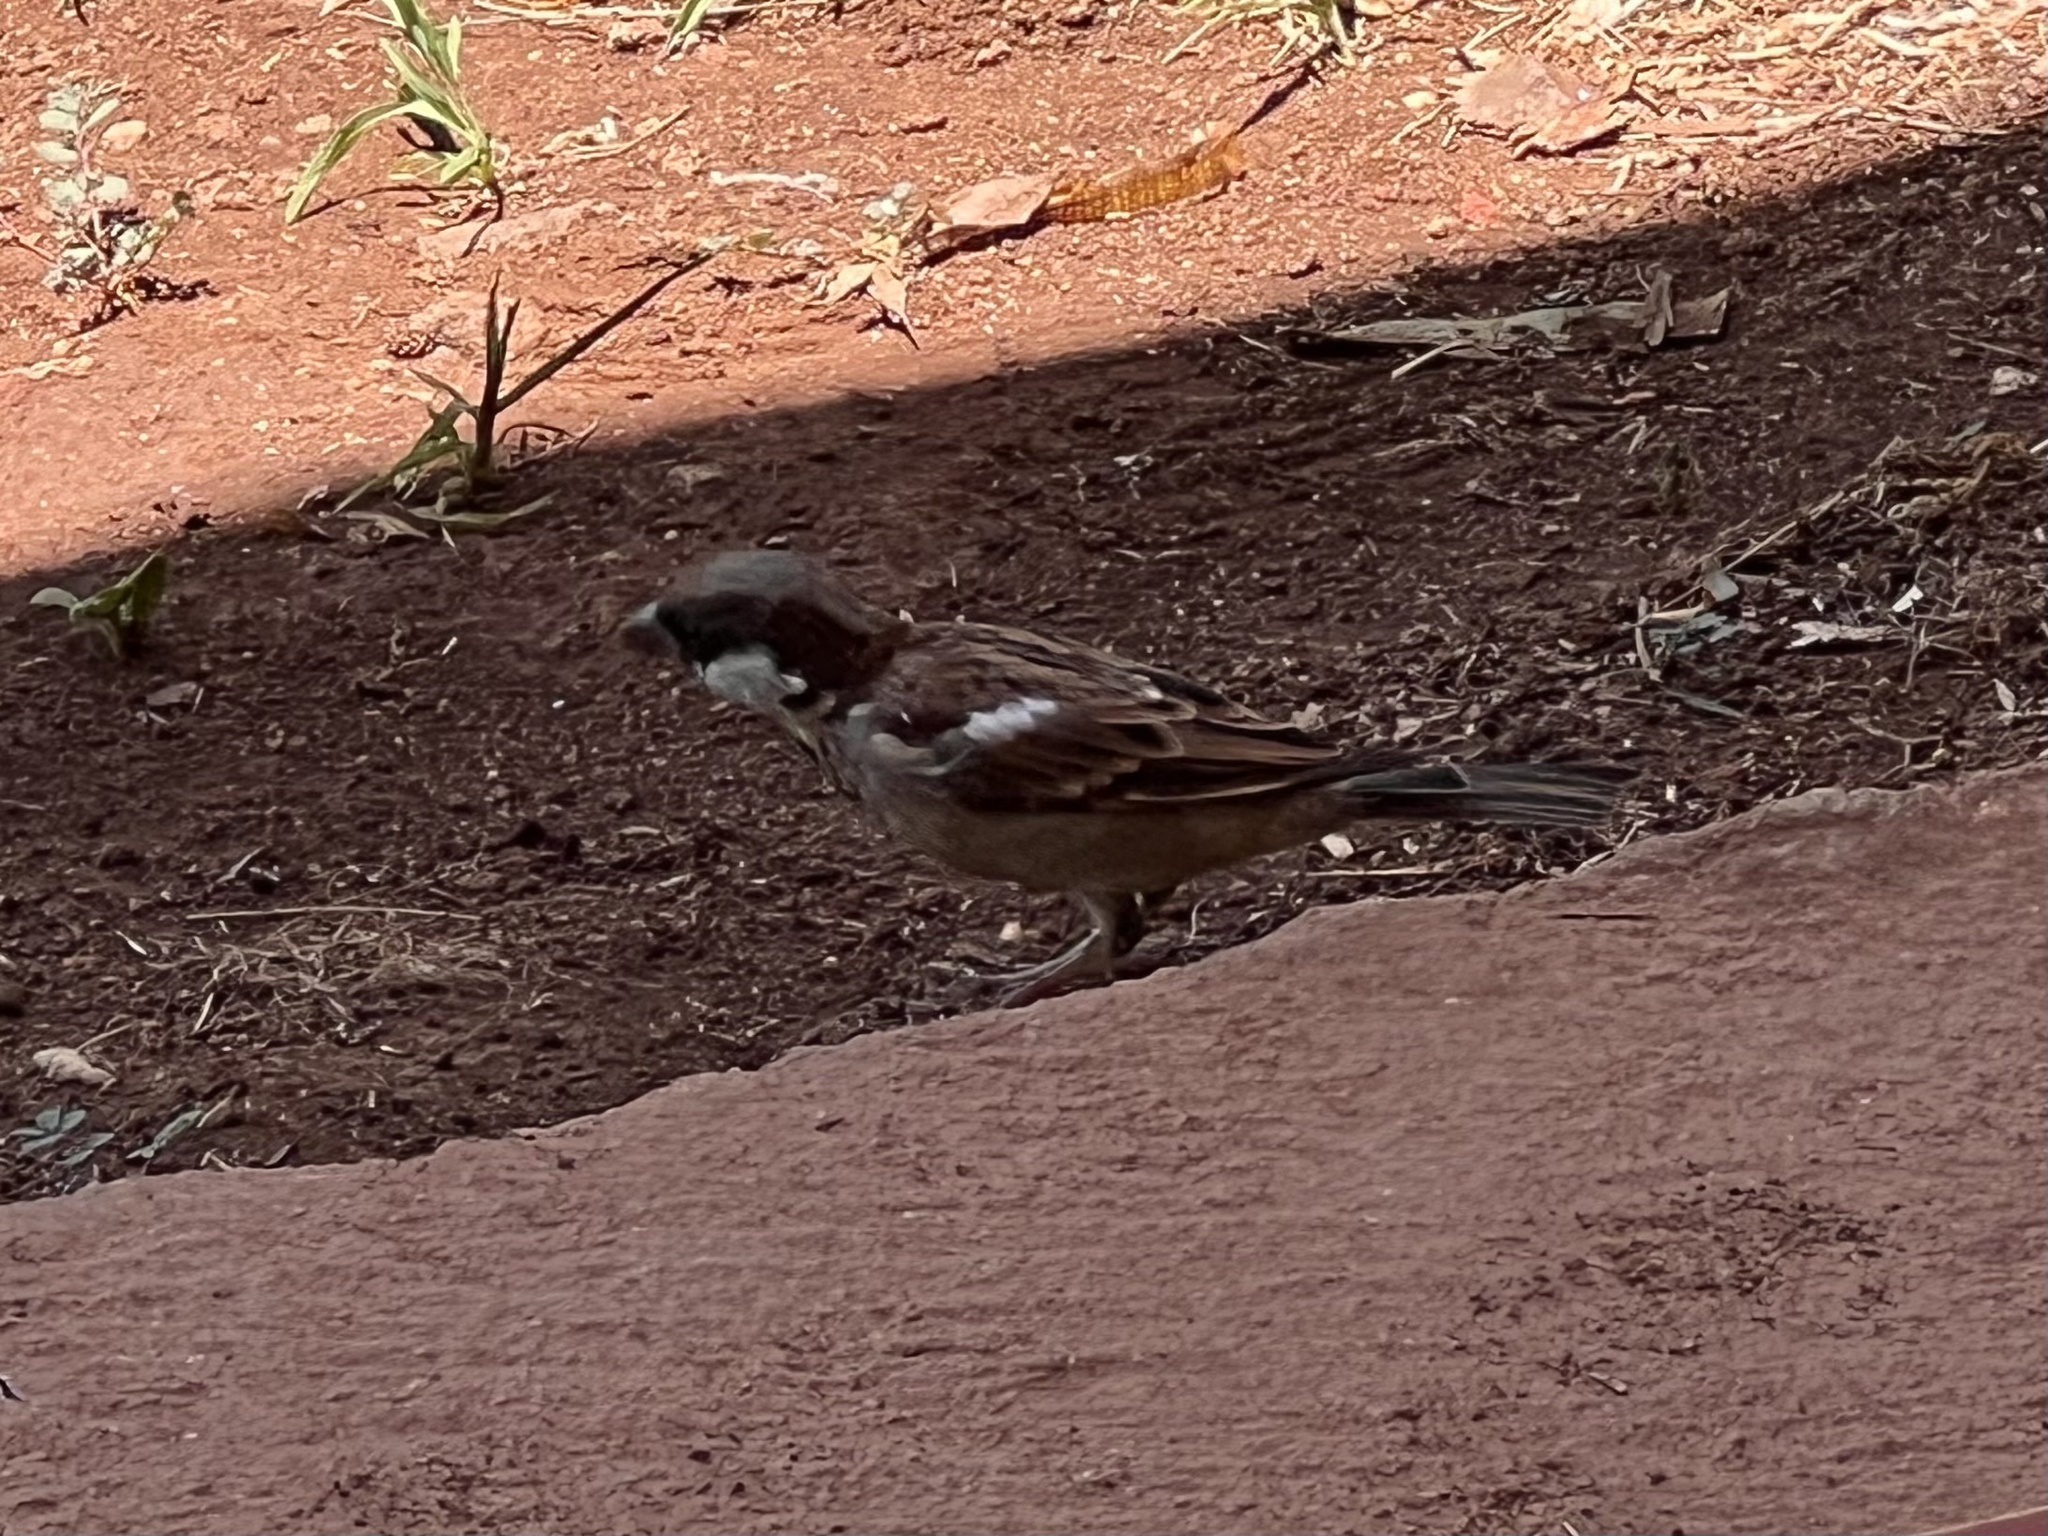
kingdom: Animalia
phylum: Chordata
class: Aves
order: Passeriformes
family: Passeridae
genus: Passer
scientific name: Passer domesticus
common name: House sparrow
